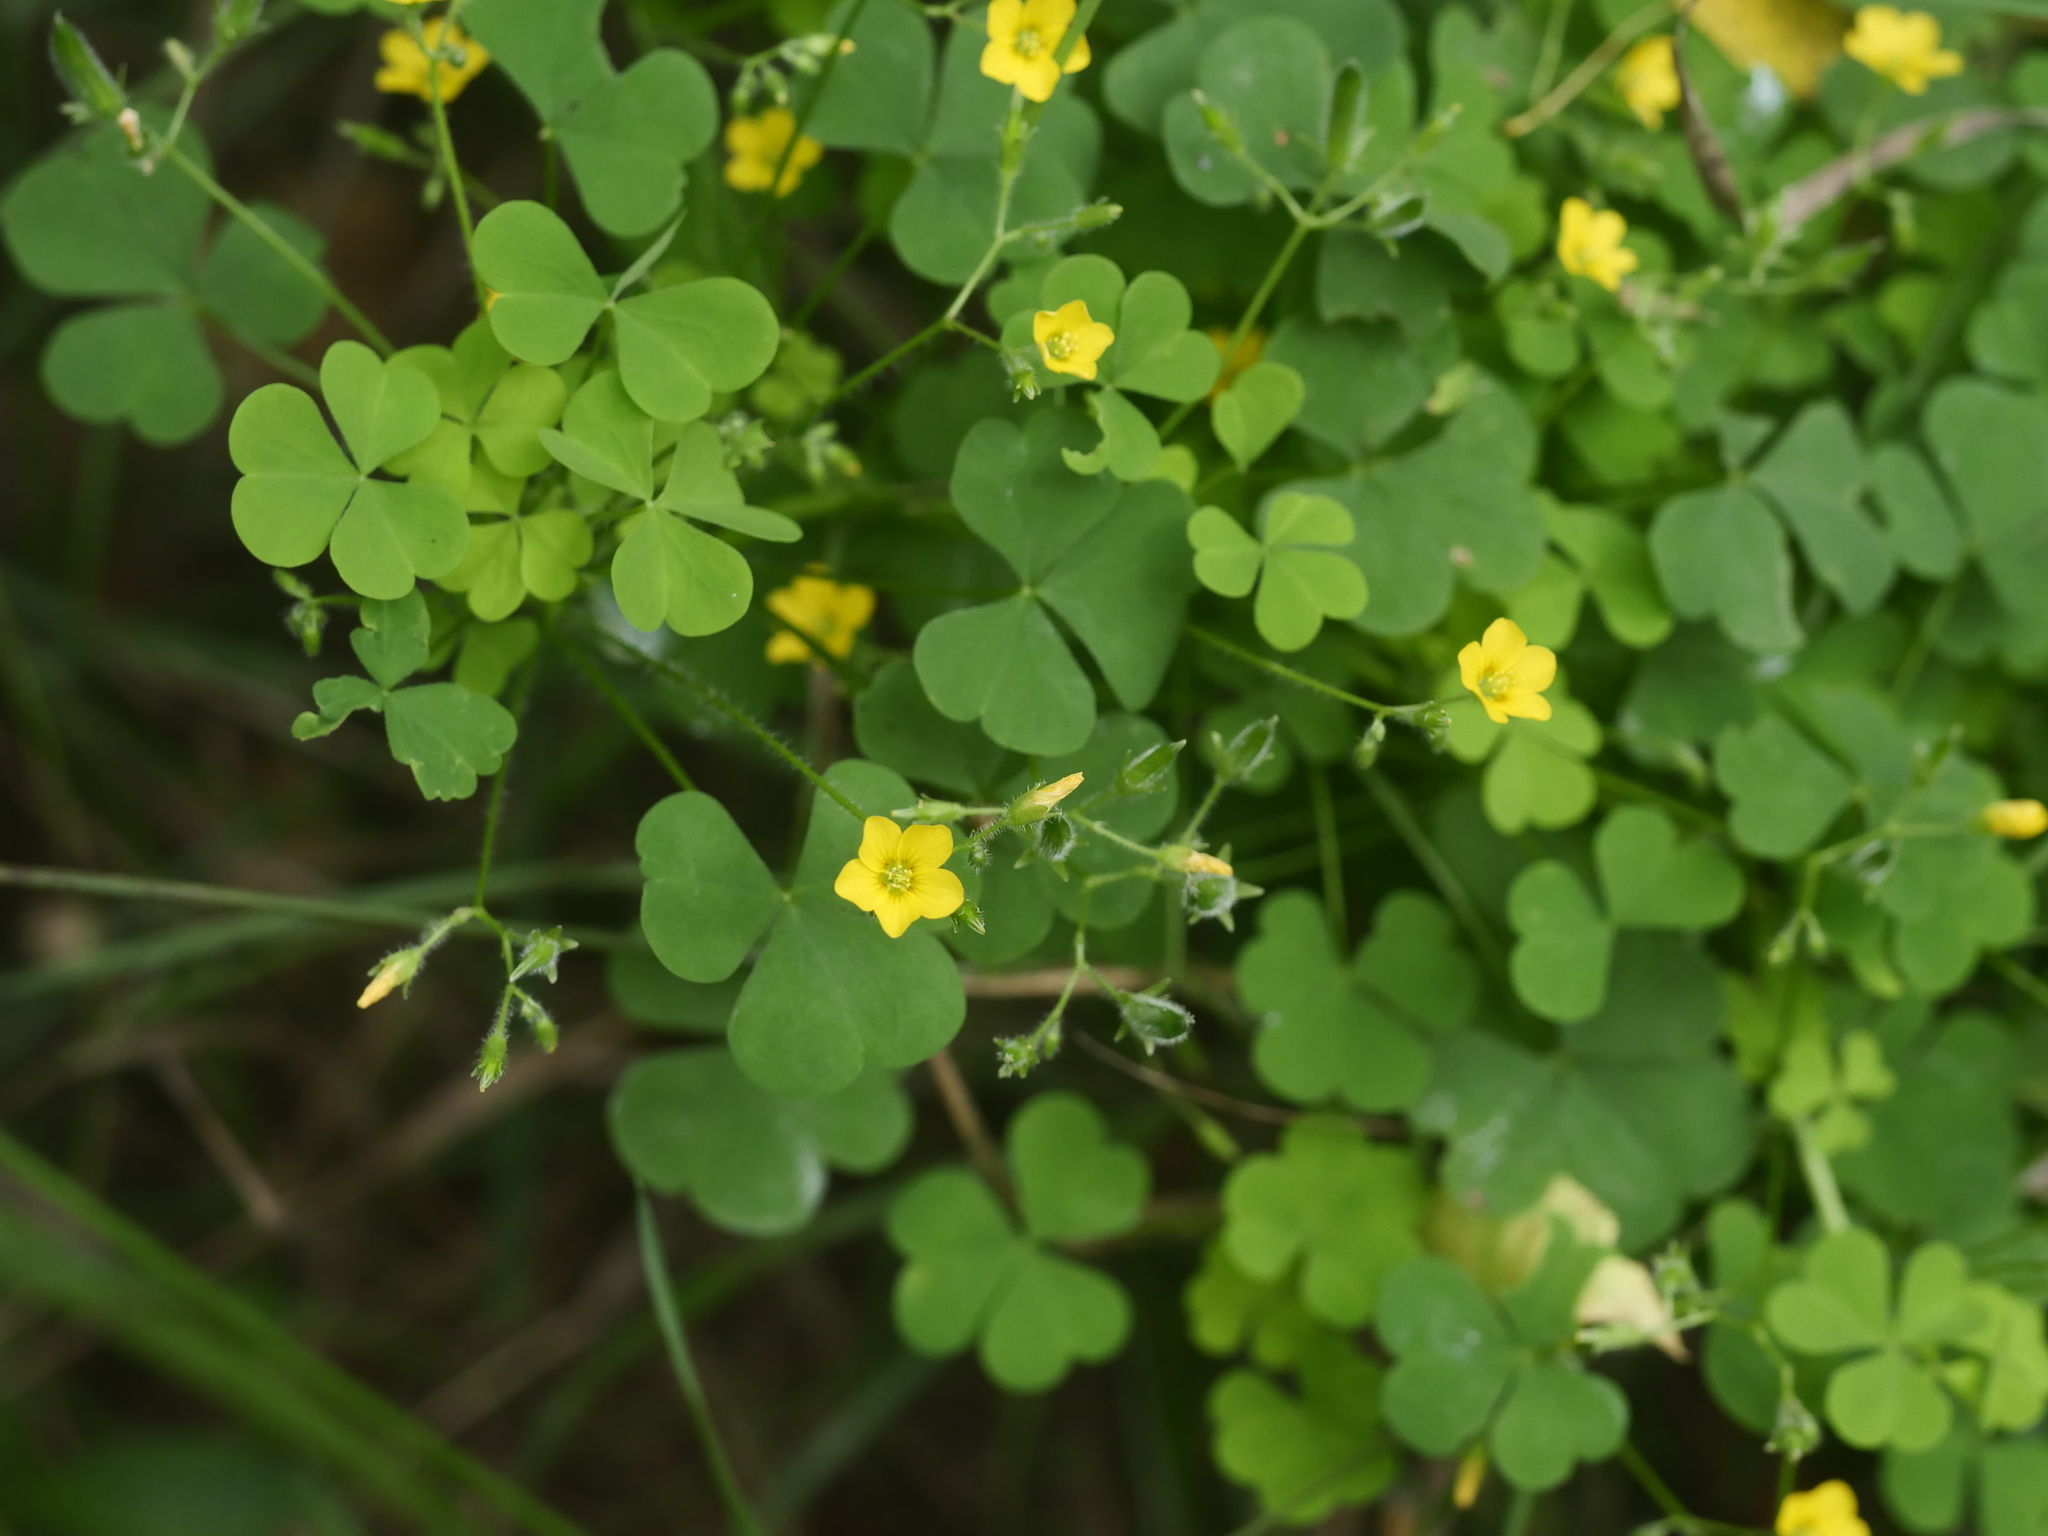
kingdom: Plantae
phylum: Tracheophyta
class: Magnoliopsida
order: Oxalidales
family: Oxalidaceae
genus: Oxalis
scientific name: Oxalis stricta
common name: Upright yellow-sorrel
